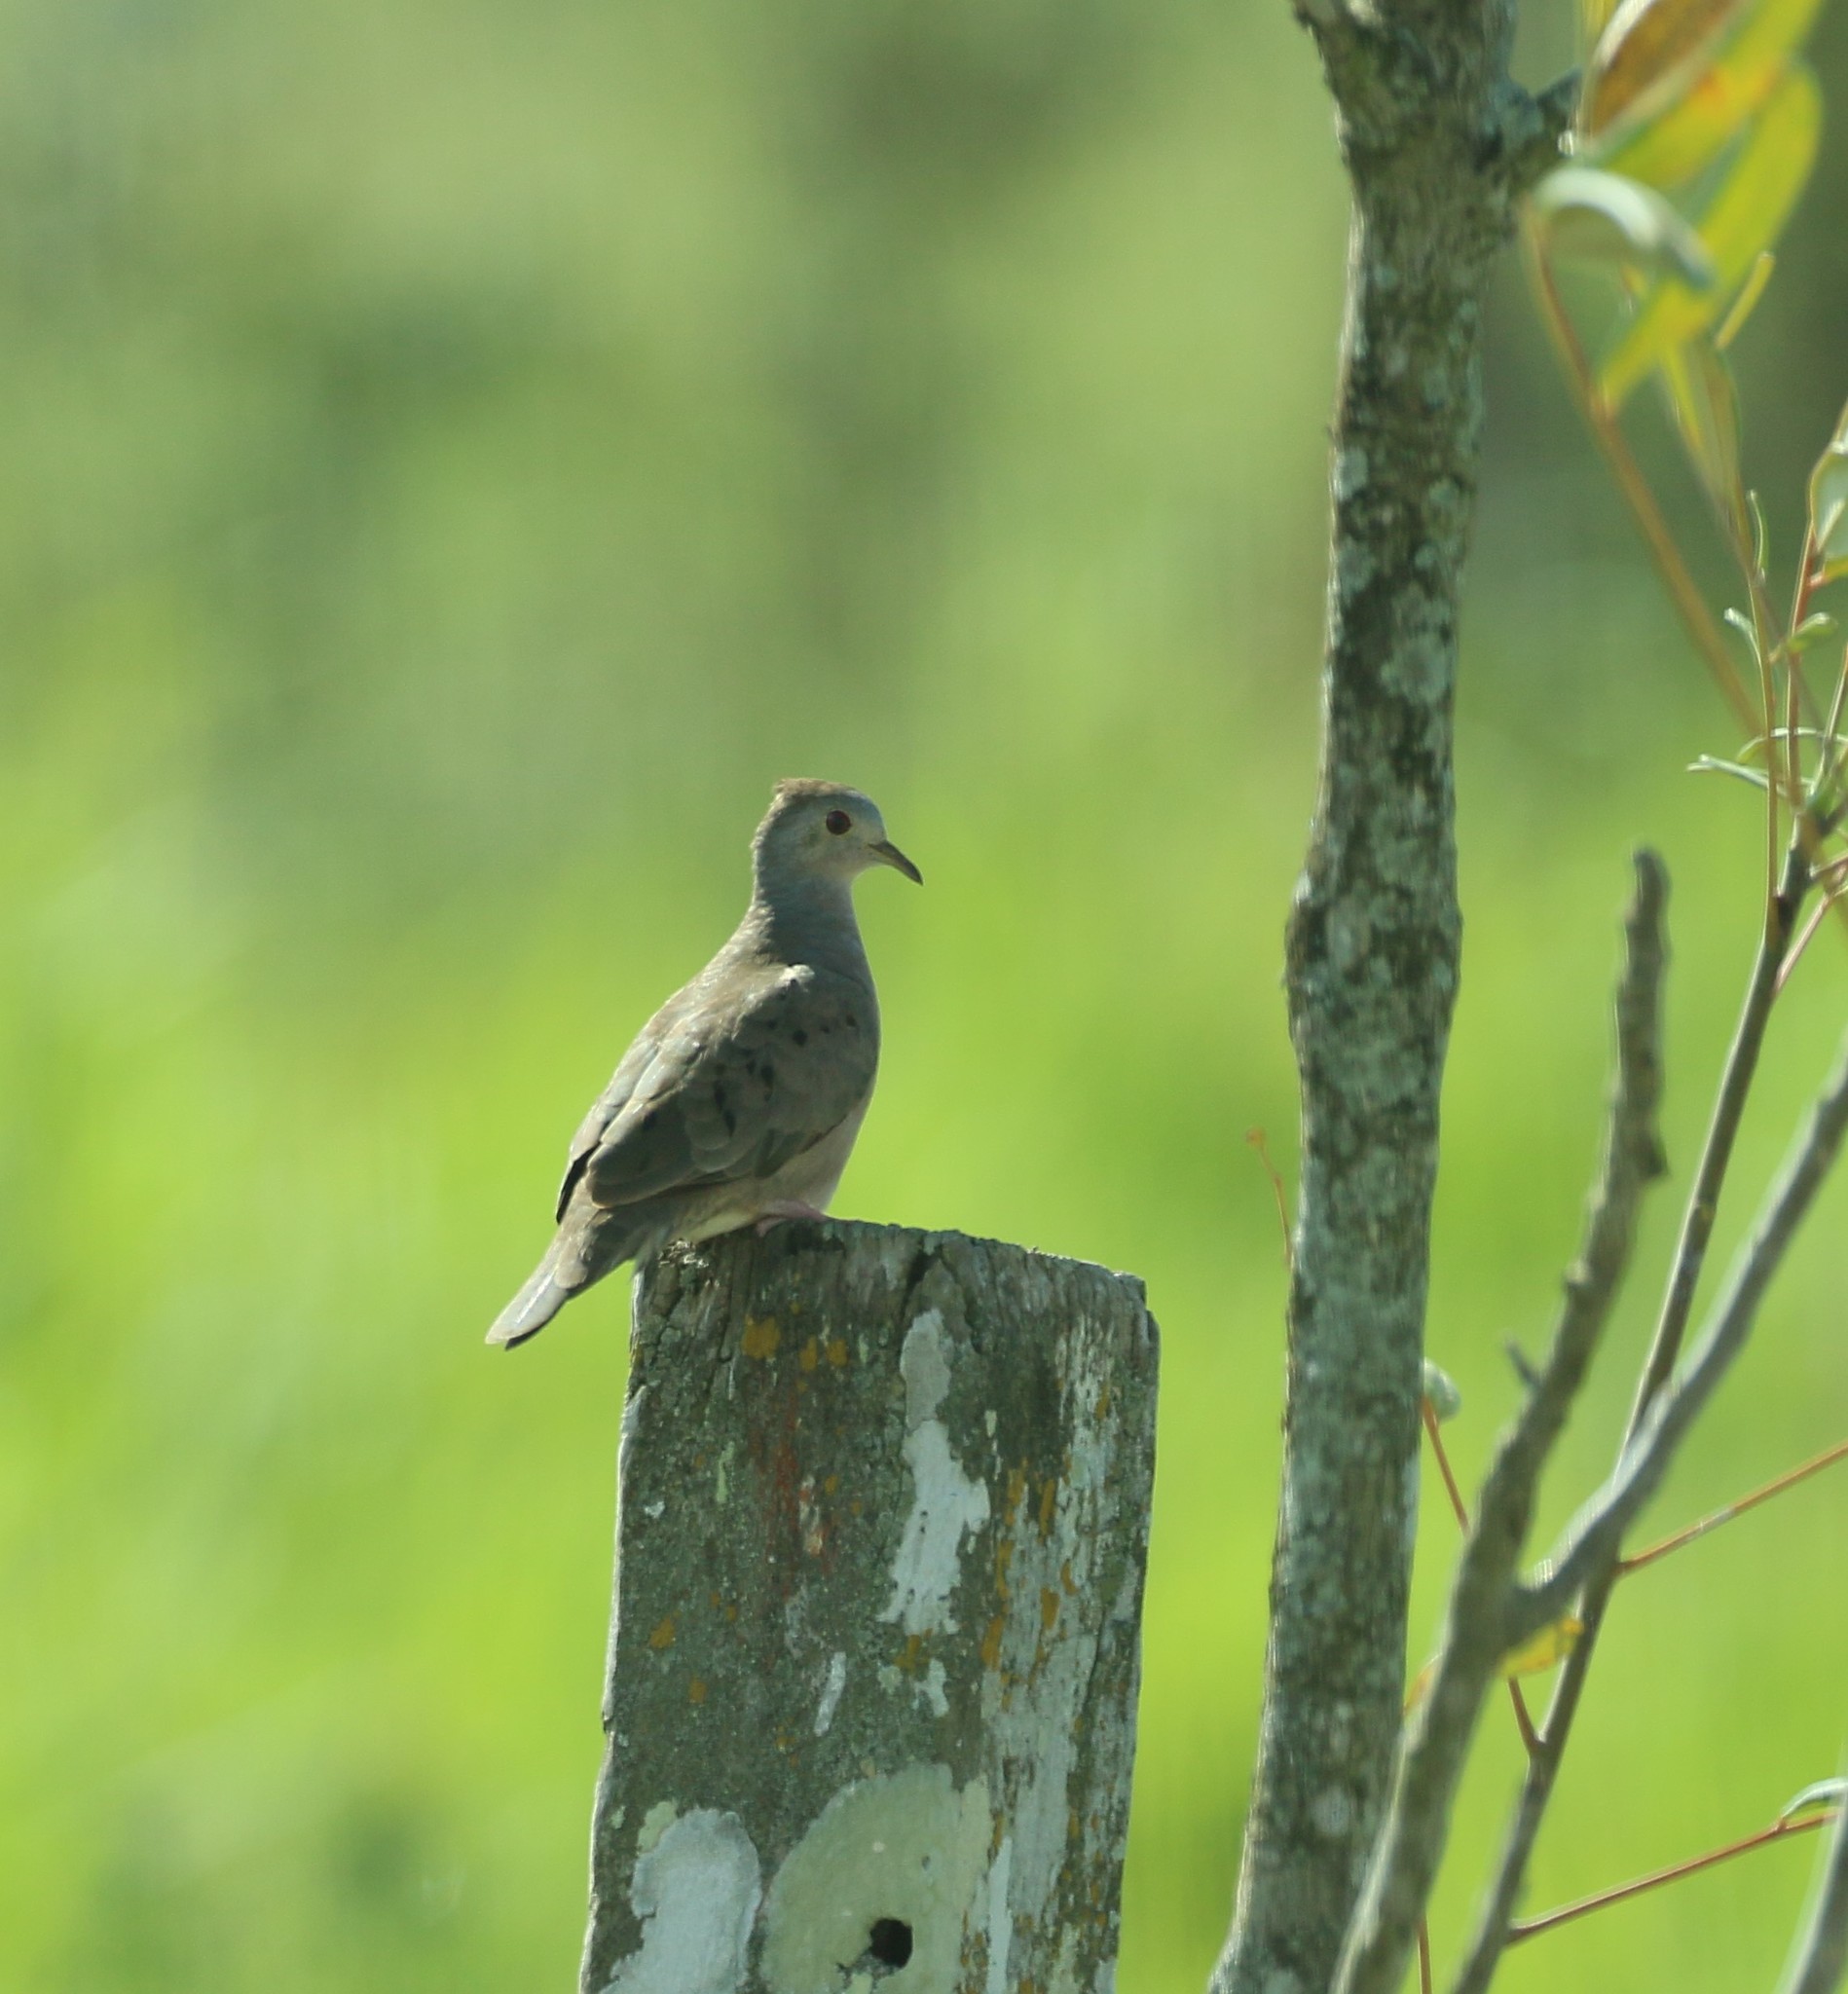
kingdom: Animalia
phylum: Chordata
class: Aves
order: Columbiformes
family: Columbidae
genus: Columbina
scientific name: Columbina talpacoti
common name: Ruddy ground dove
